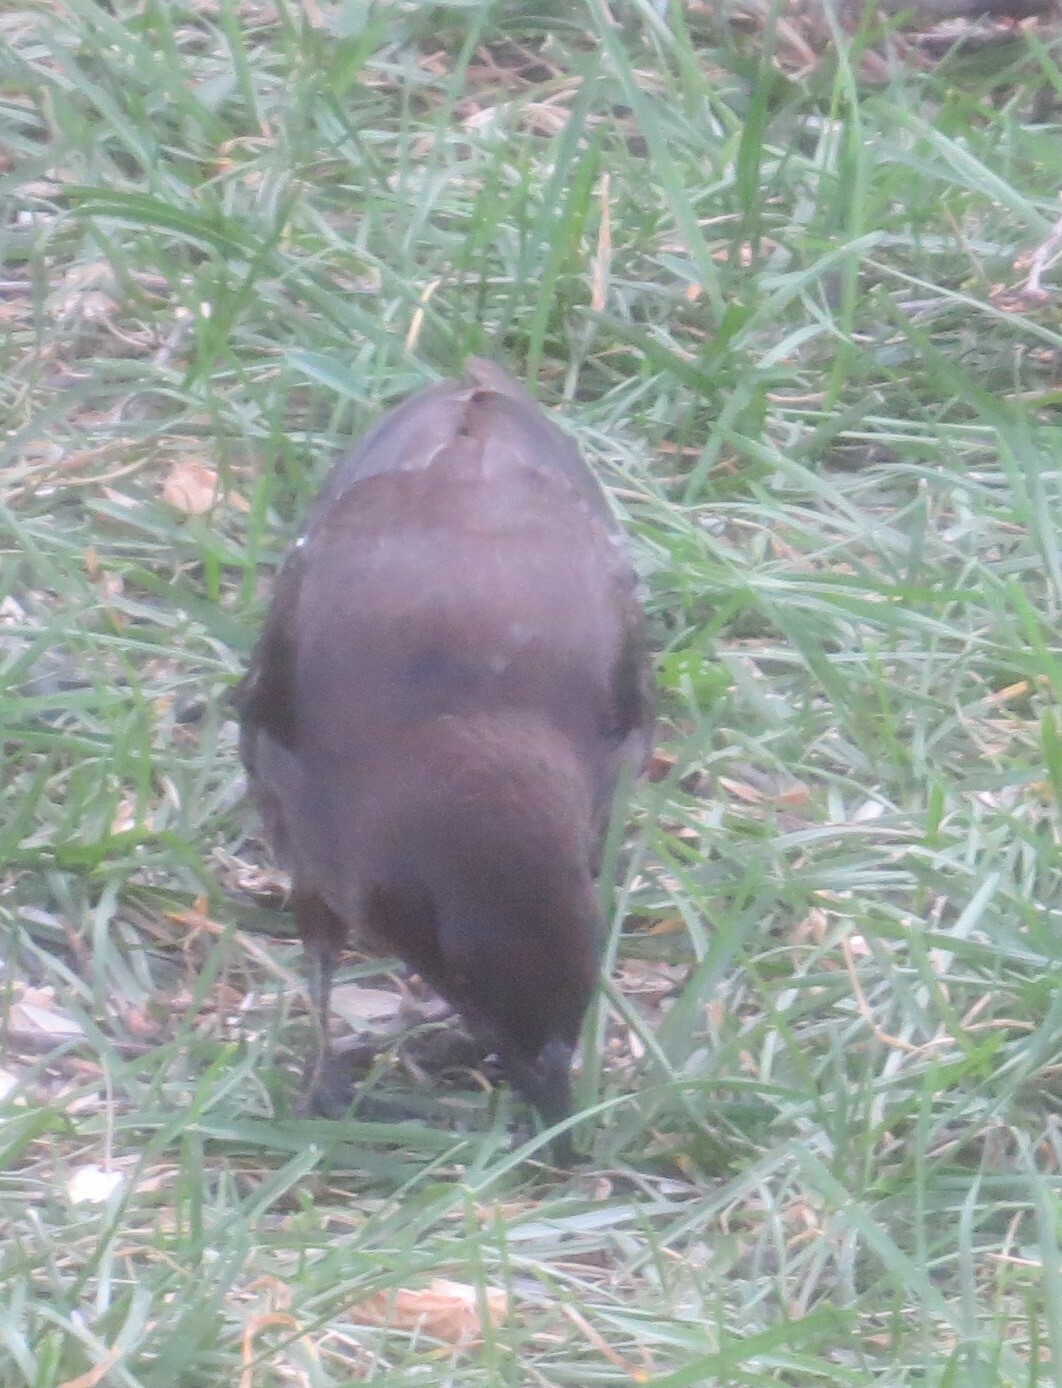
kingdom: Animalia
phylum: Chordata
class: Aves
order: Passeriformes
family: Icteridae
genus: Quiscalus
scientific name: Quiscalus quiscula
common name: Common grackle
